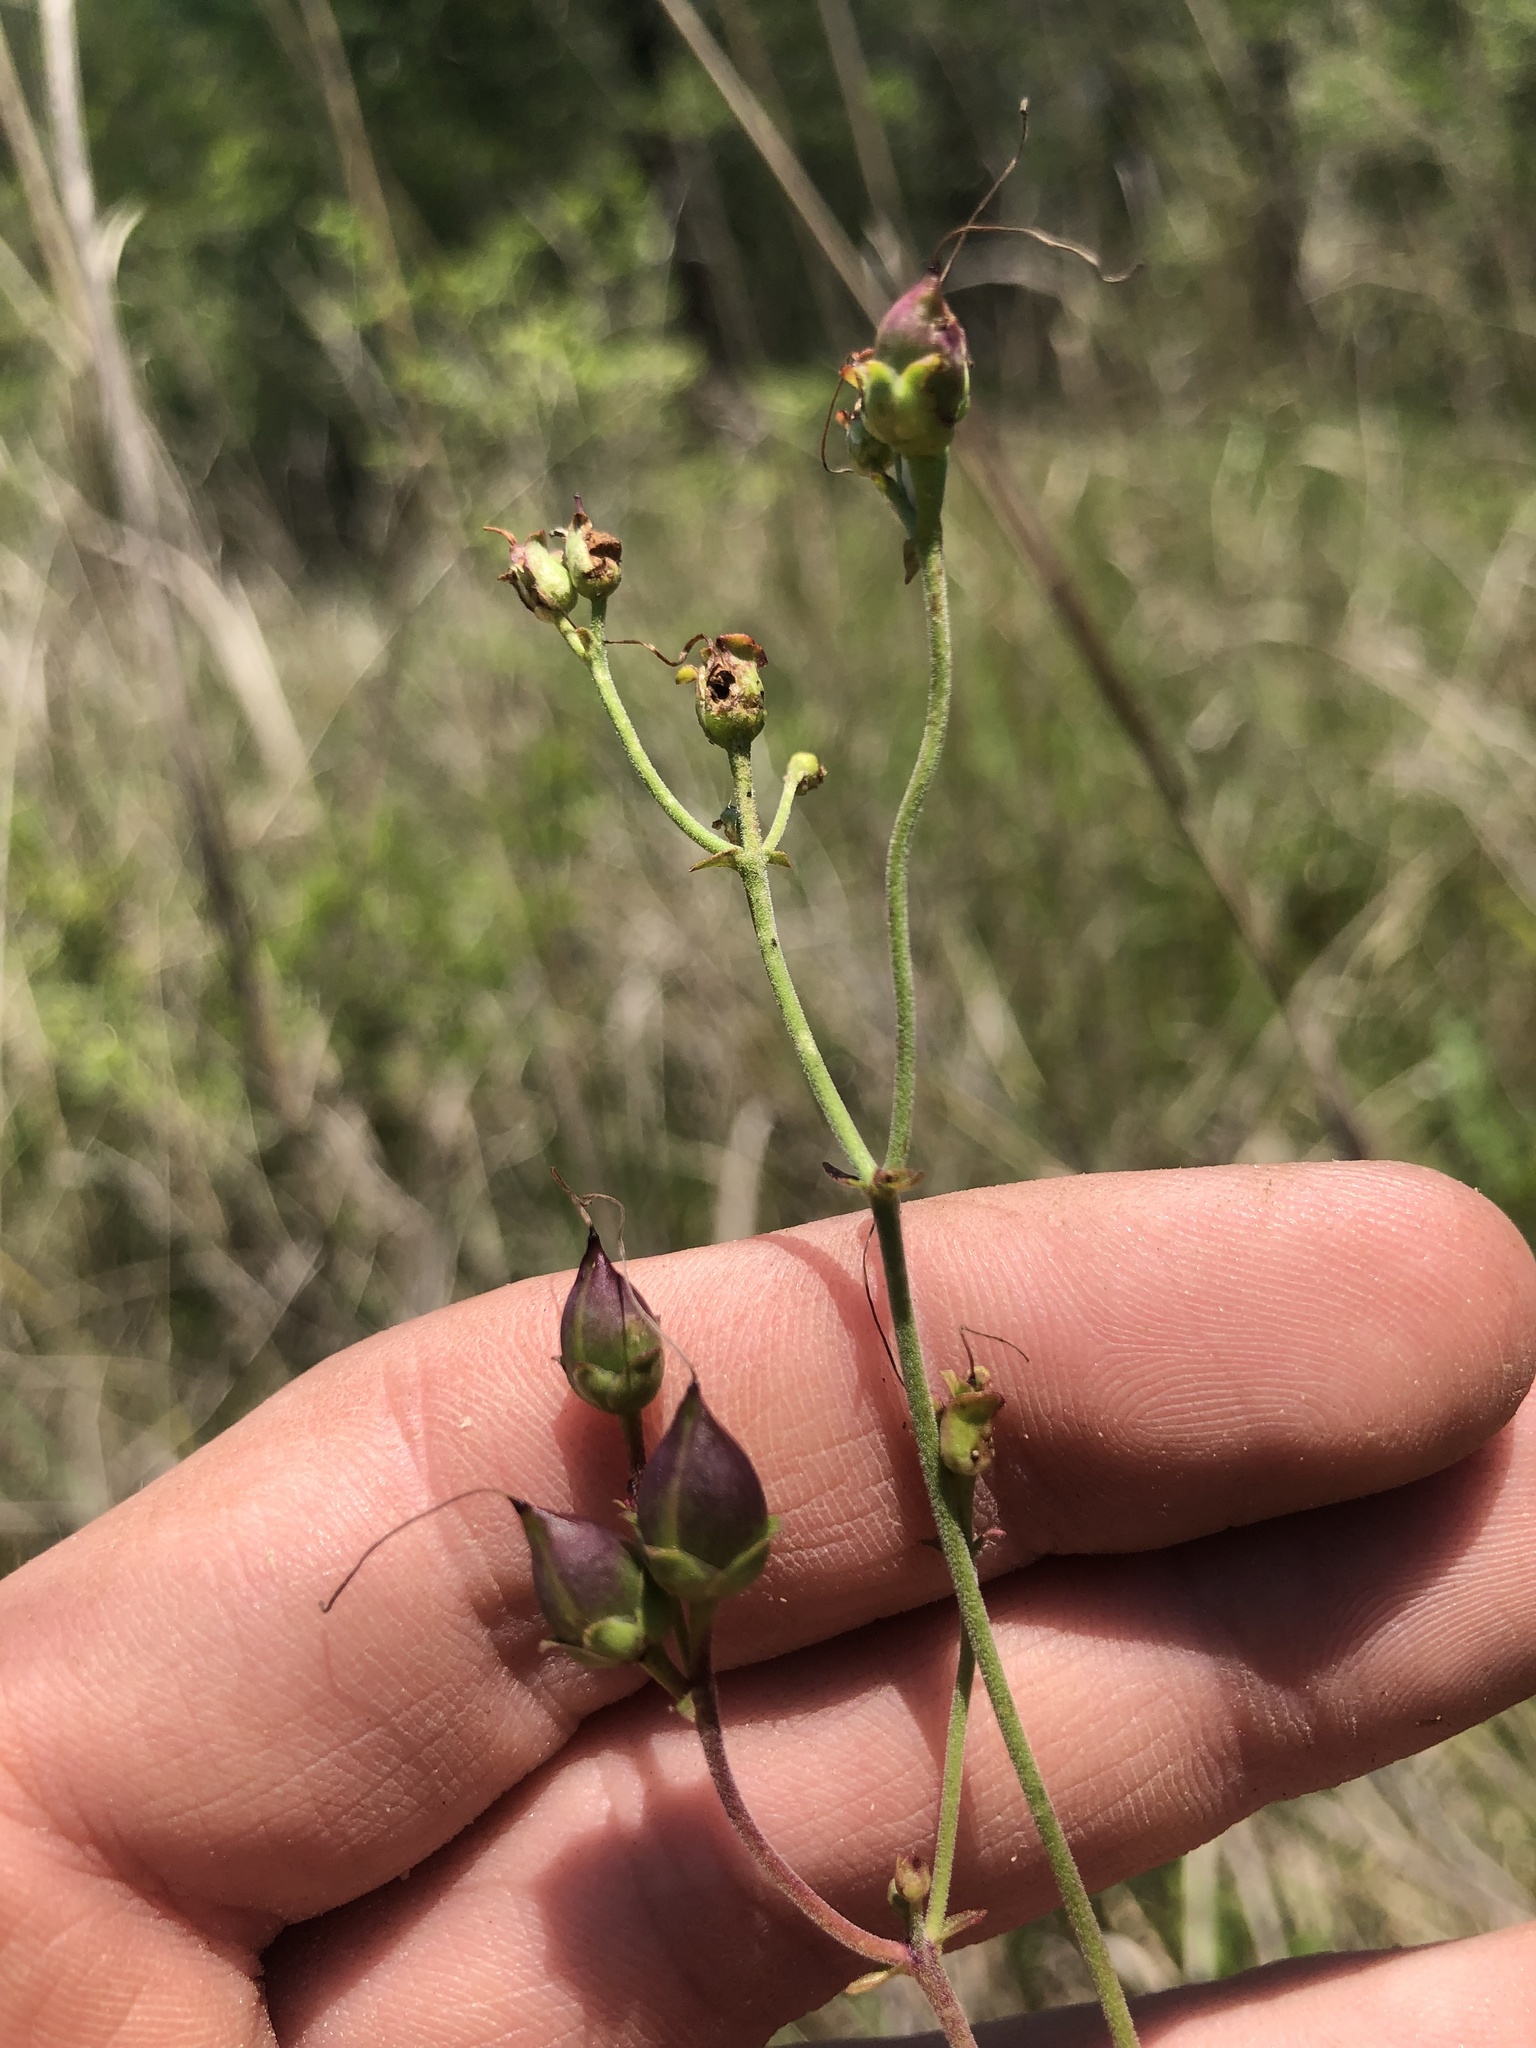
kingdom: Plantae
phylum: Tracheophyta
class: Magnoliopsida
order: Lamiales
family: Plantaginaceae
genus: Penstemon
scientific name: Penstemon laxiflorus
